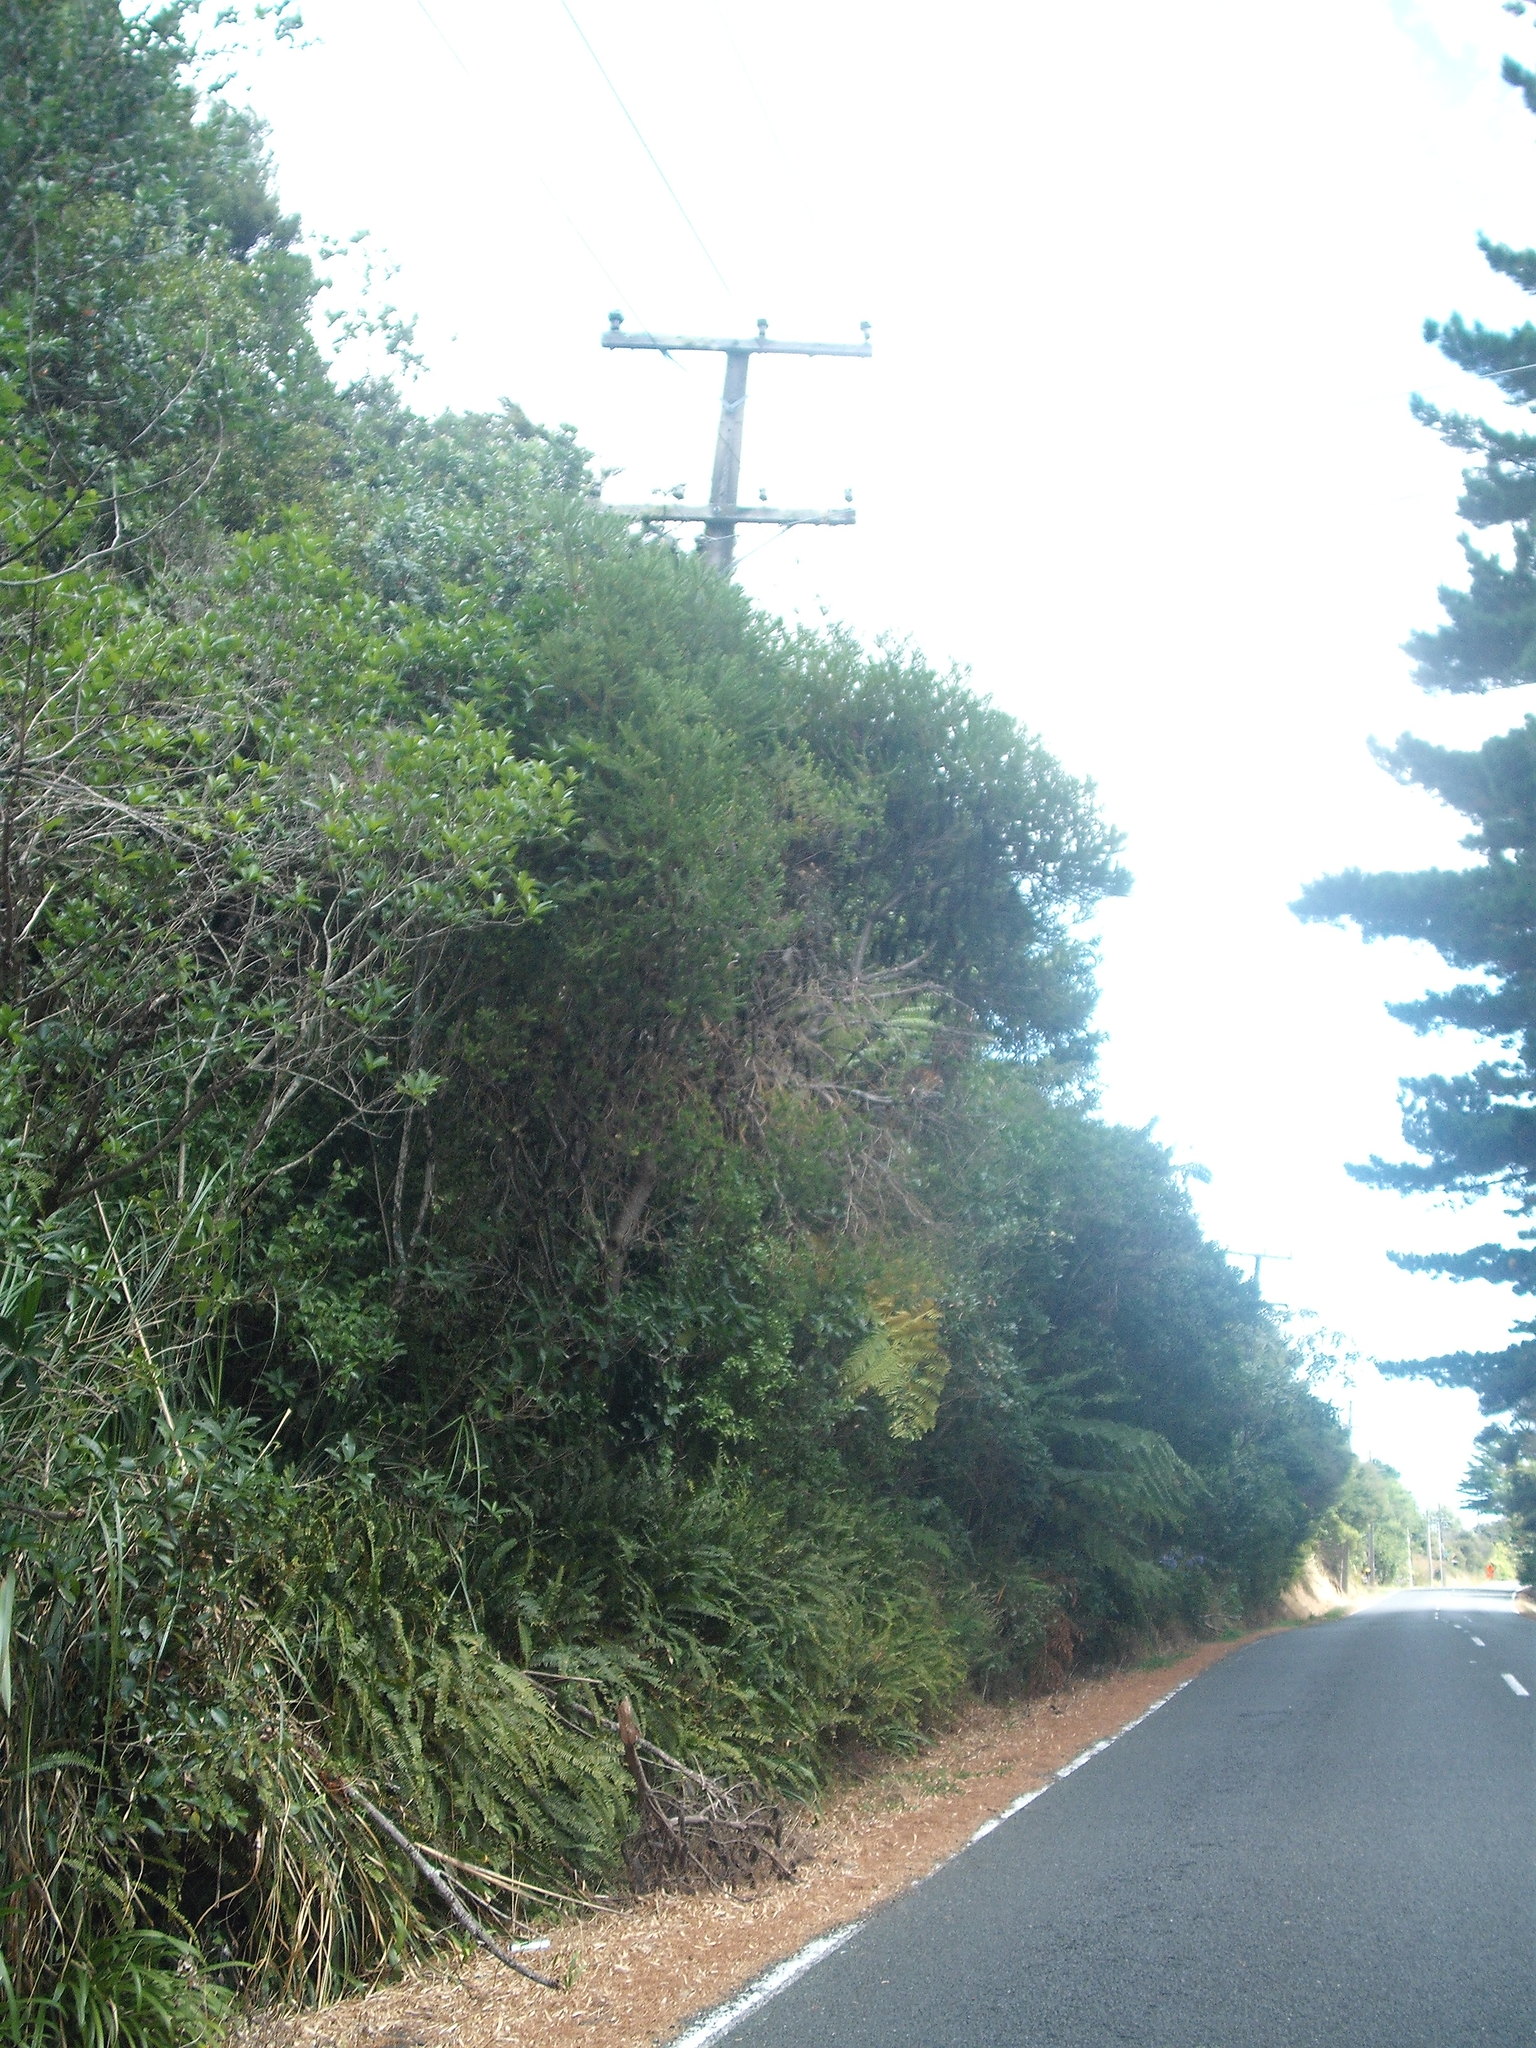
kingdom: Plantae
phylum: Tracheophyta
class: Magnoliopsida
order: Proteales
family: Proteaceae
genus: Banksia
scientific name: Banksia ericifolia
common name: Heath-leaf banksia
